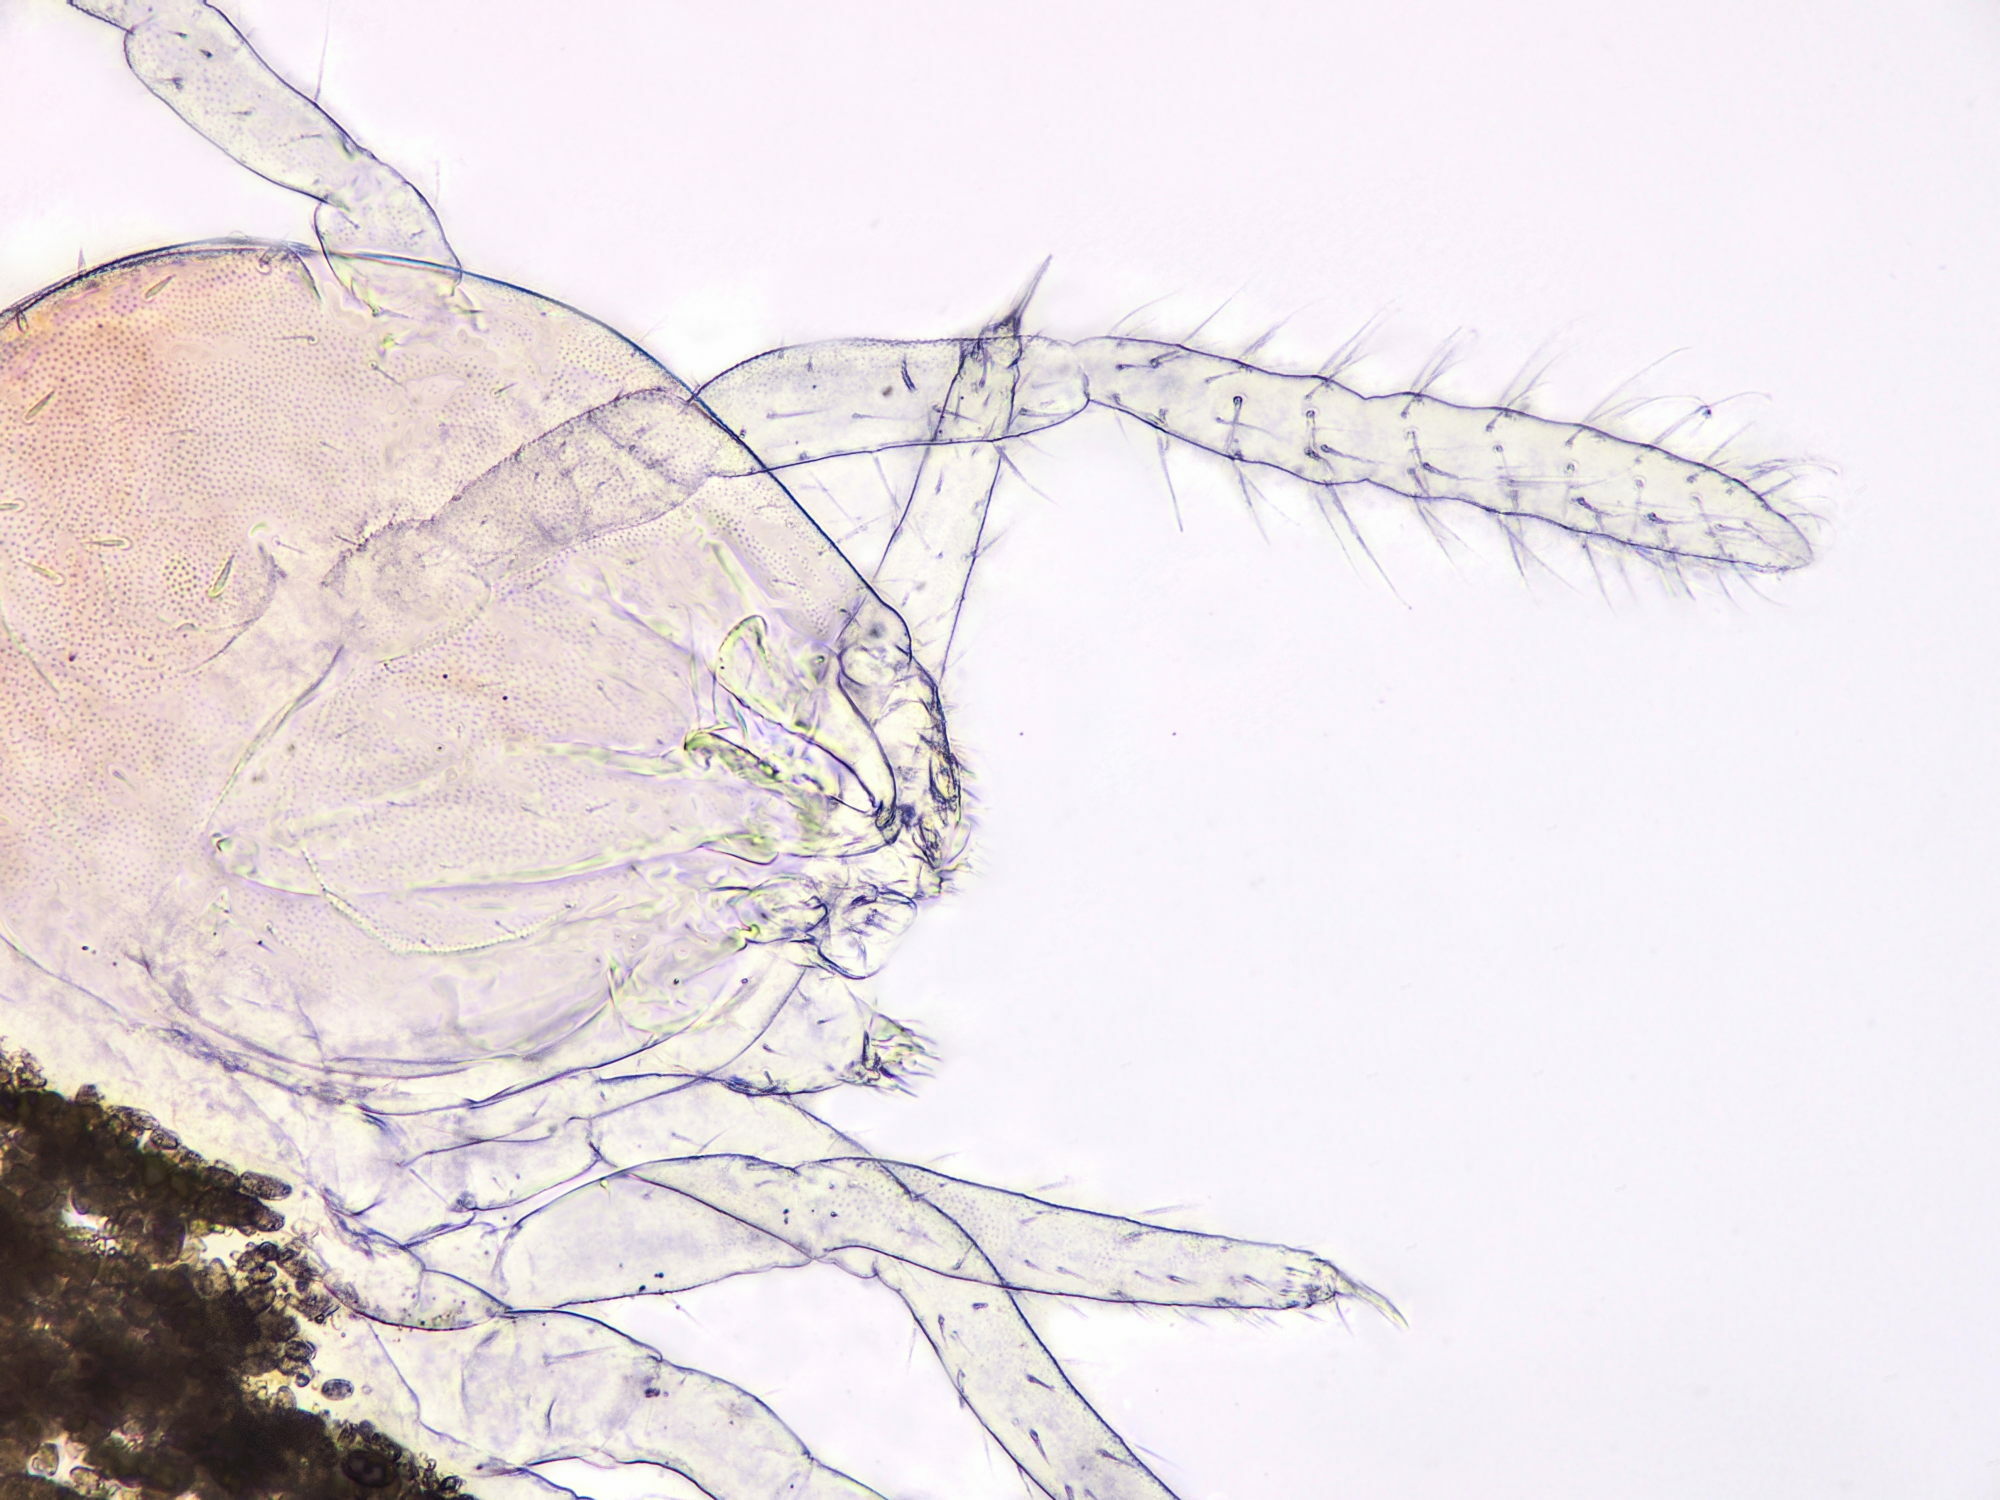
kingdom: Animalia
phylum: Arthropoda
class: Collembola
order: Symphypleona
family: Arrhopalitidae
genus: Arrhopalites
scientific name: Arrhopalites caecus
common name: Globular springtail
